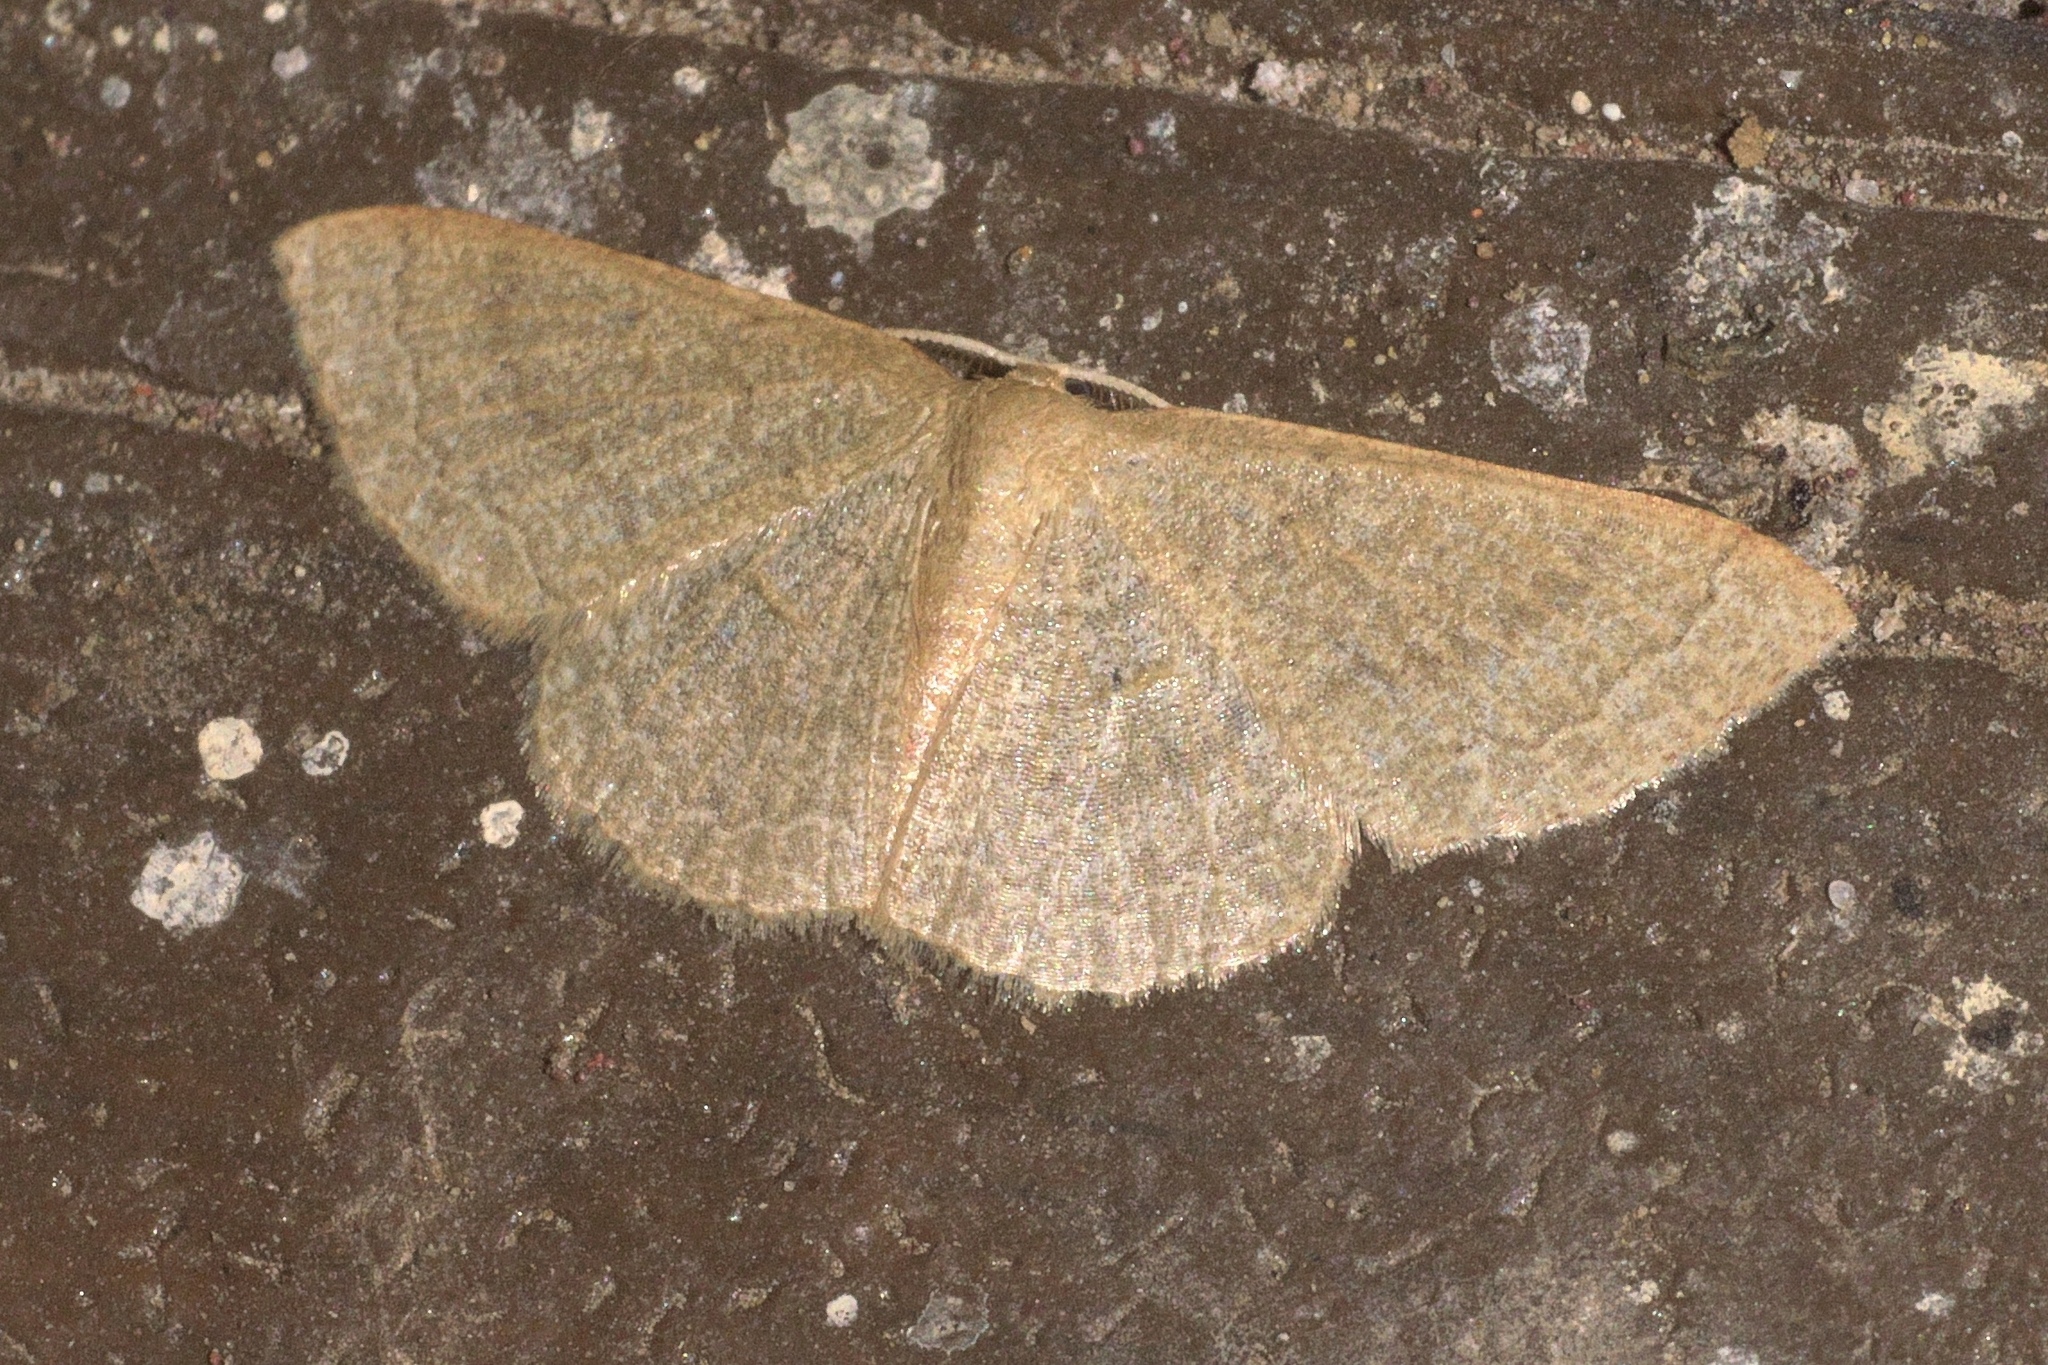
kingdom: Animalia
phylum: Arthropoda
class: Insecta
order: Lepidoptera
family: Geometridae
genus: Pleuroprucha
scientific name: Pleuroprucha insulsaria
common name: Common tan wave
